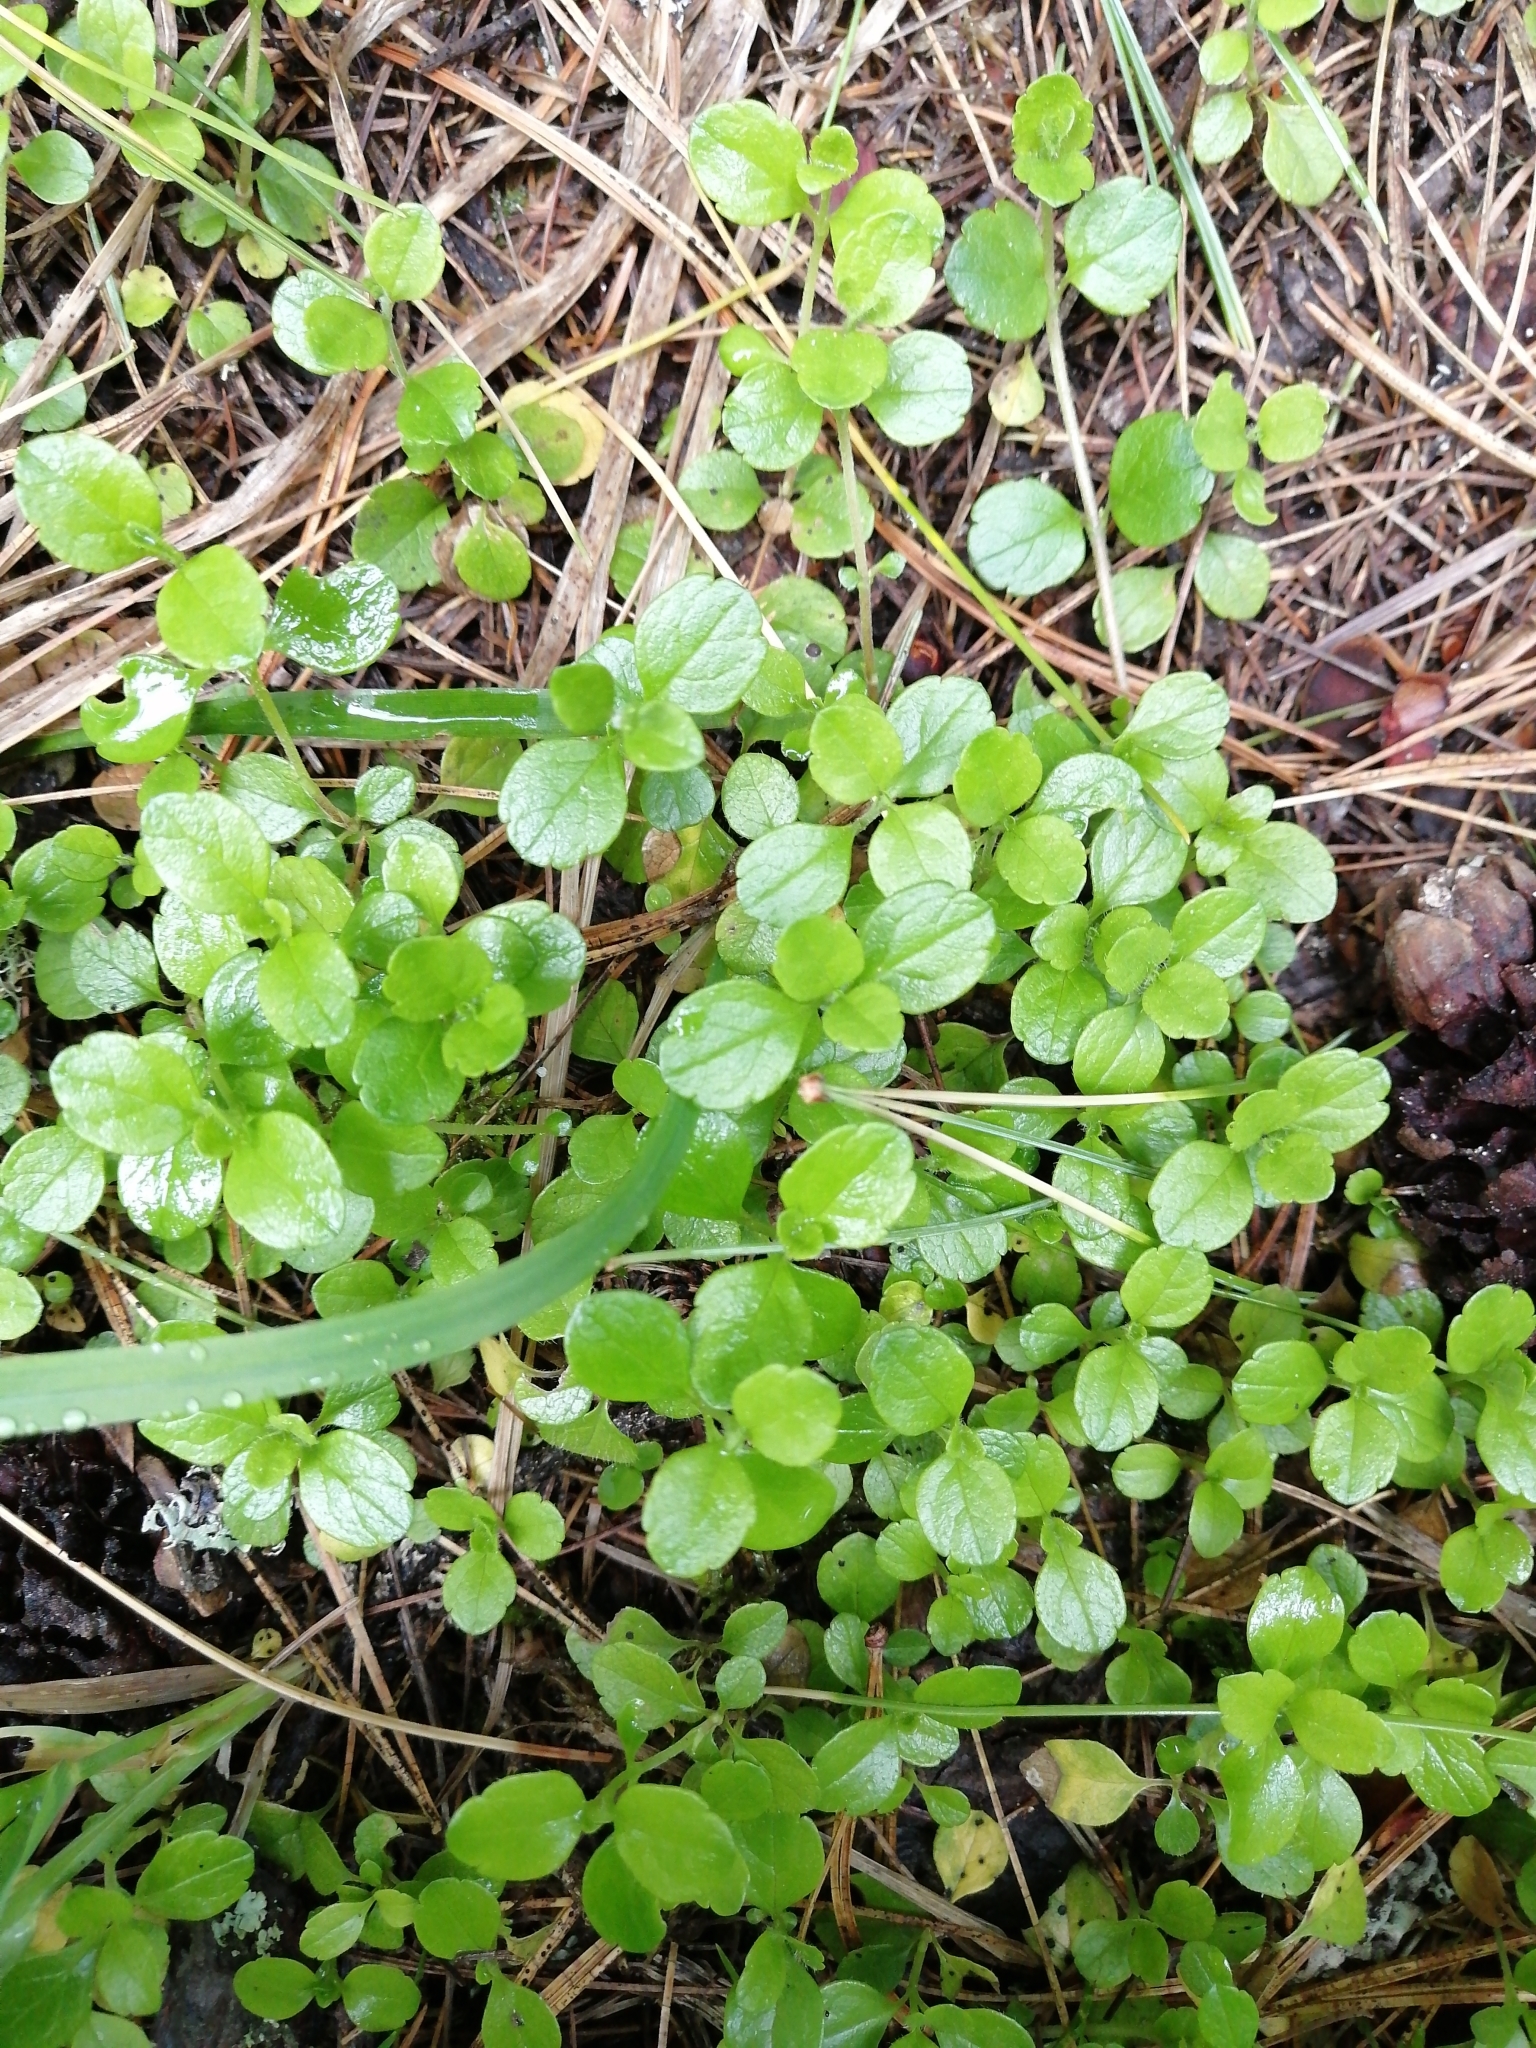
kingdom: Plantae
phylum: Tracheophyta
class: Magnoliopsida
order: Dipsacales
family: Caprifoliaceae
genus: Linnaea
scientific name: Linnaea borealis
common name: Twinflower
